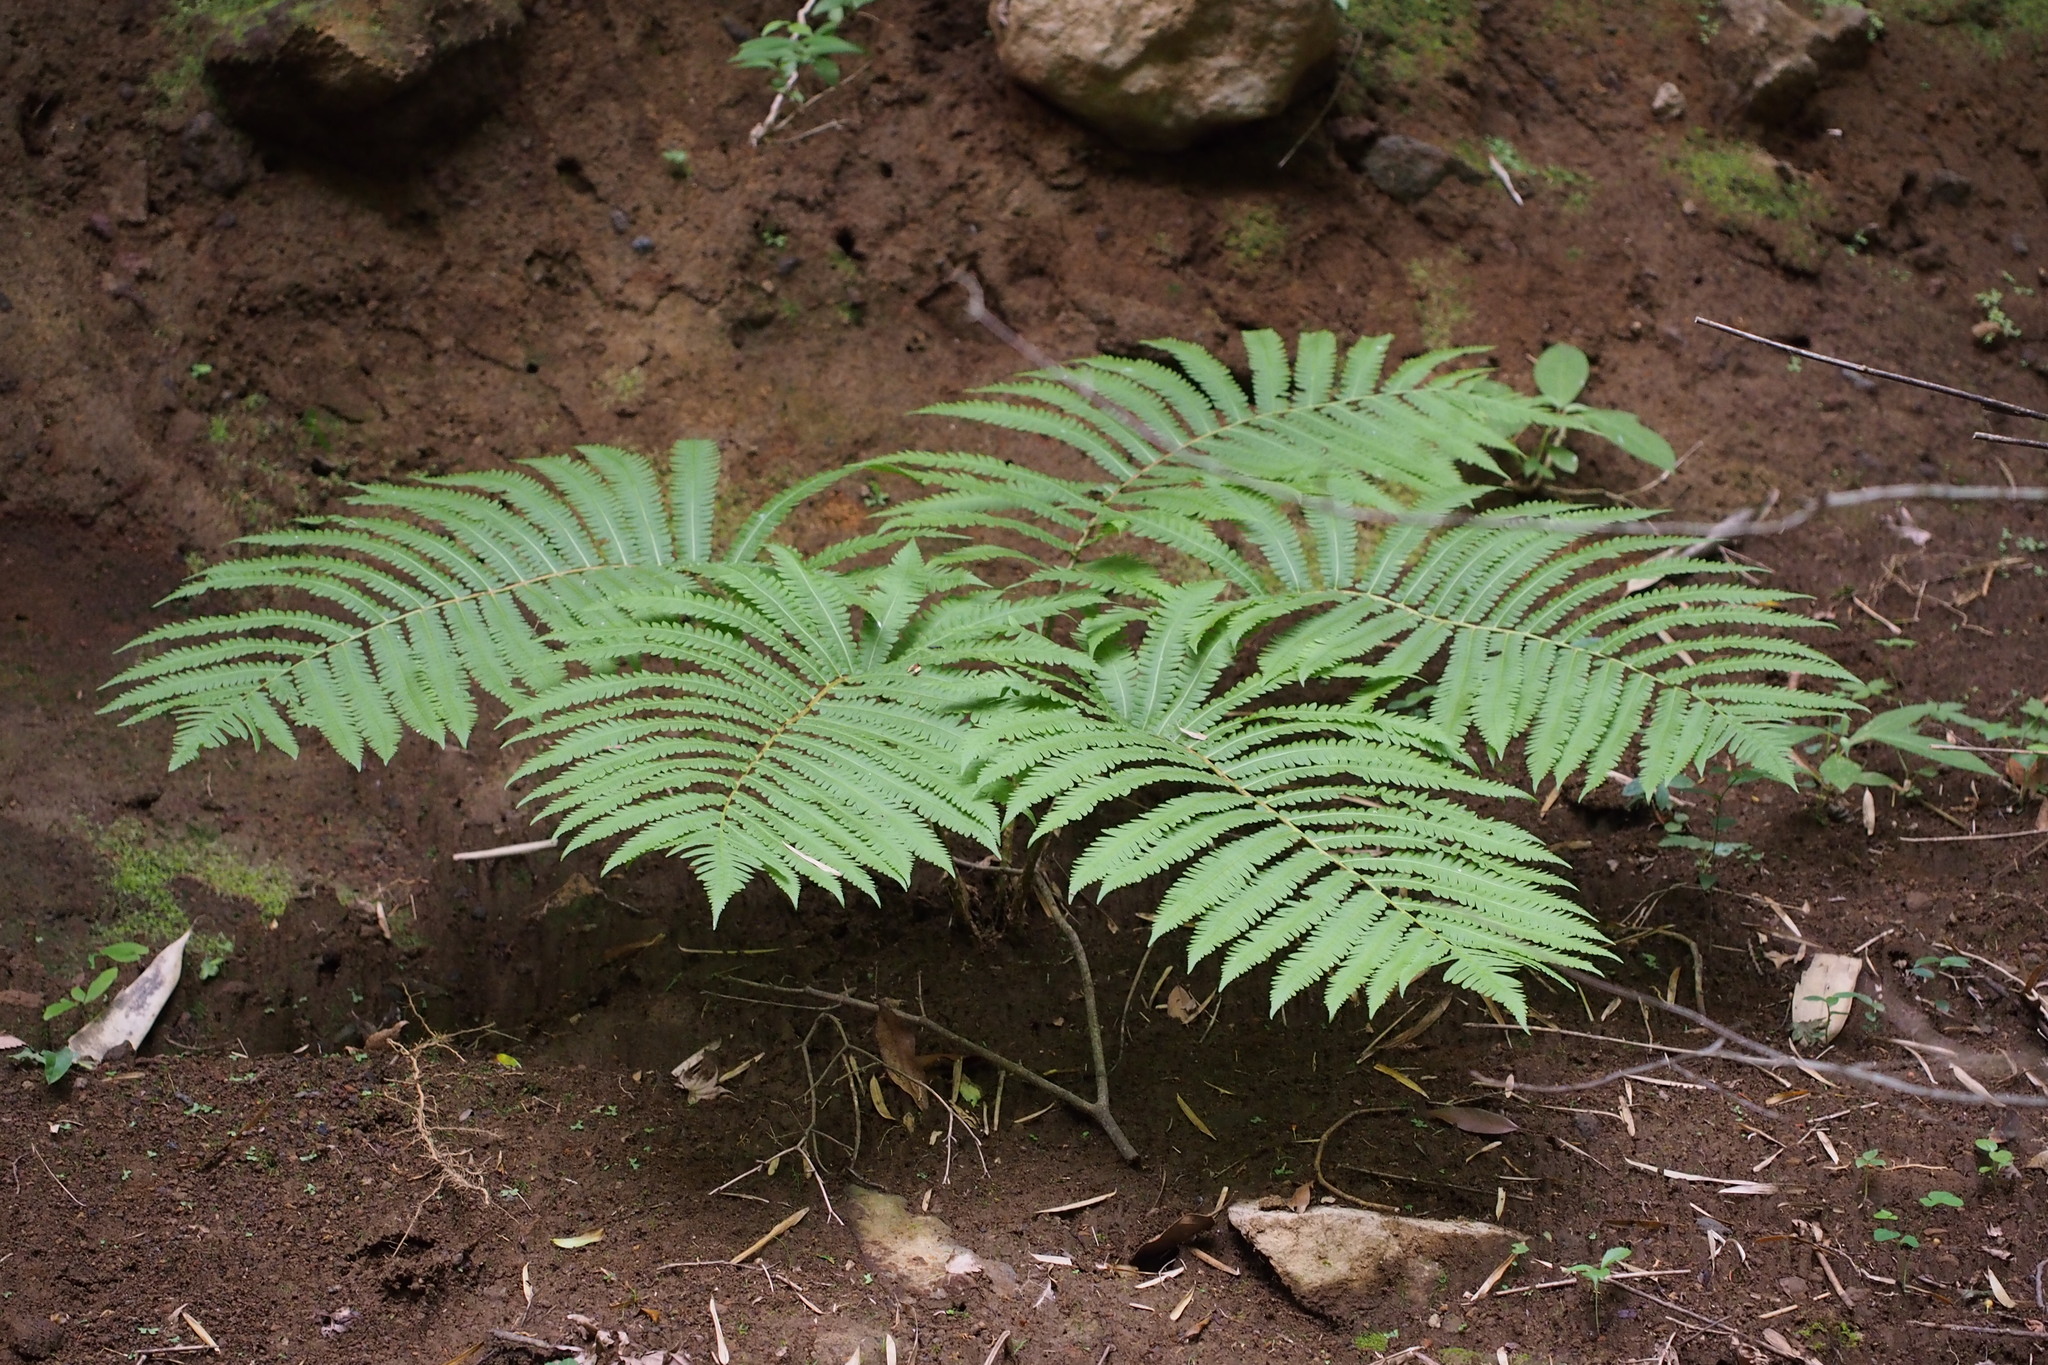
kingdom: Plantae
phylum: Tracheophyta
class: Polypodiopsida
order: Polypodiales
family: Onocleaceae
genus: Pentarhizidium
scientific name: Pentarhizidium orientale
